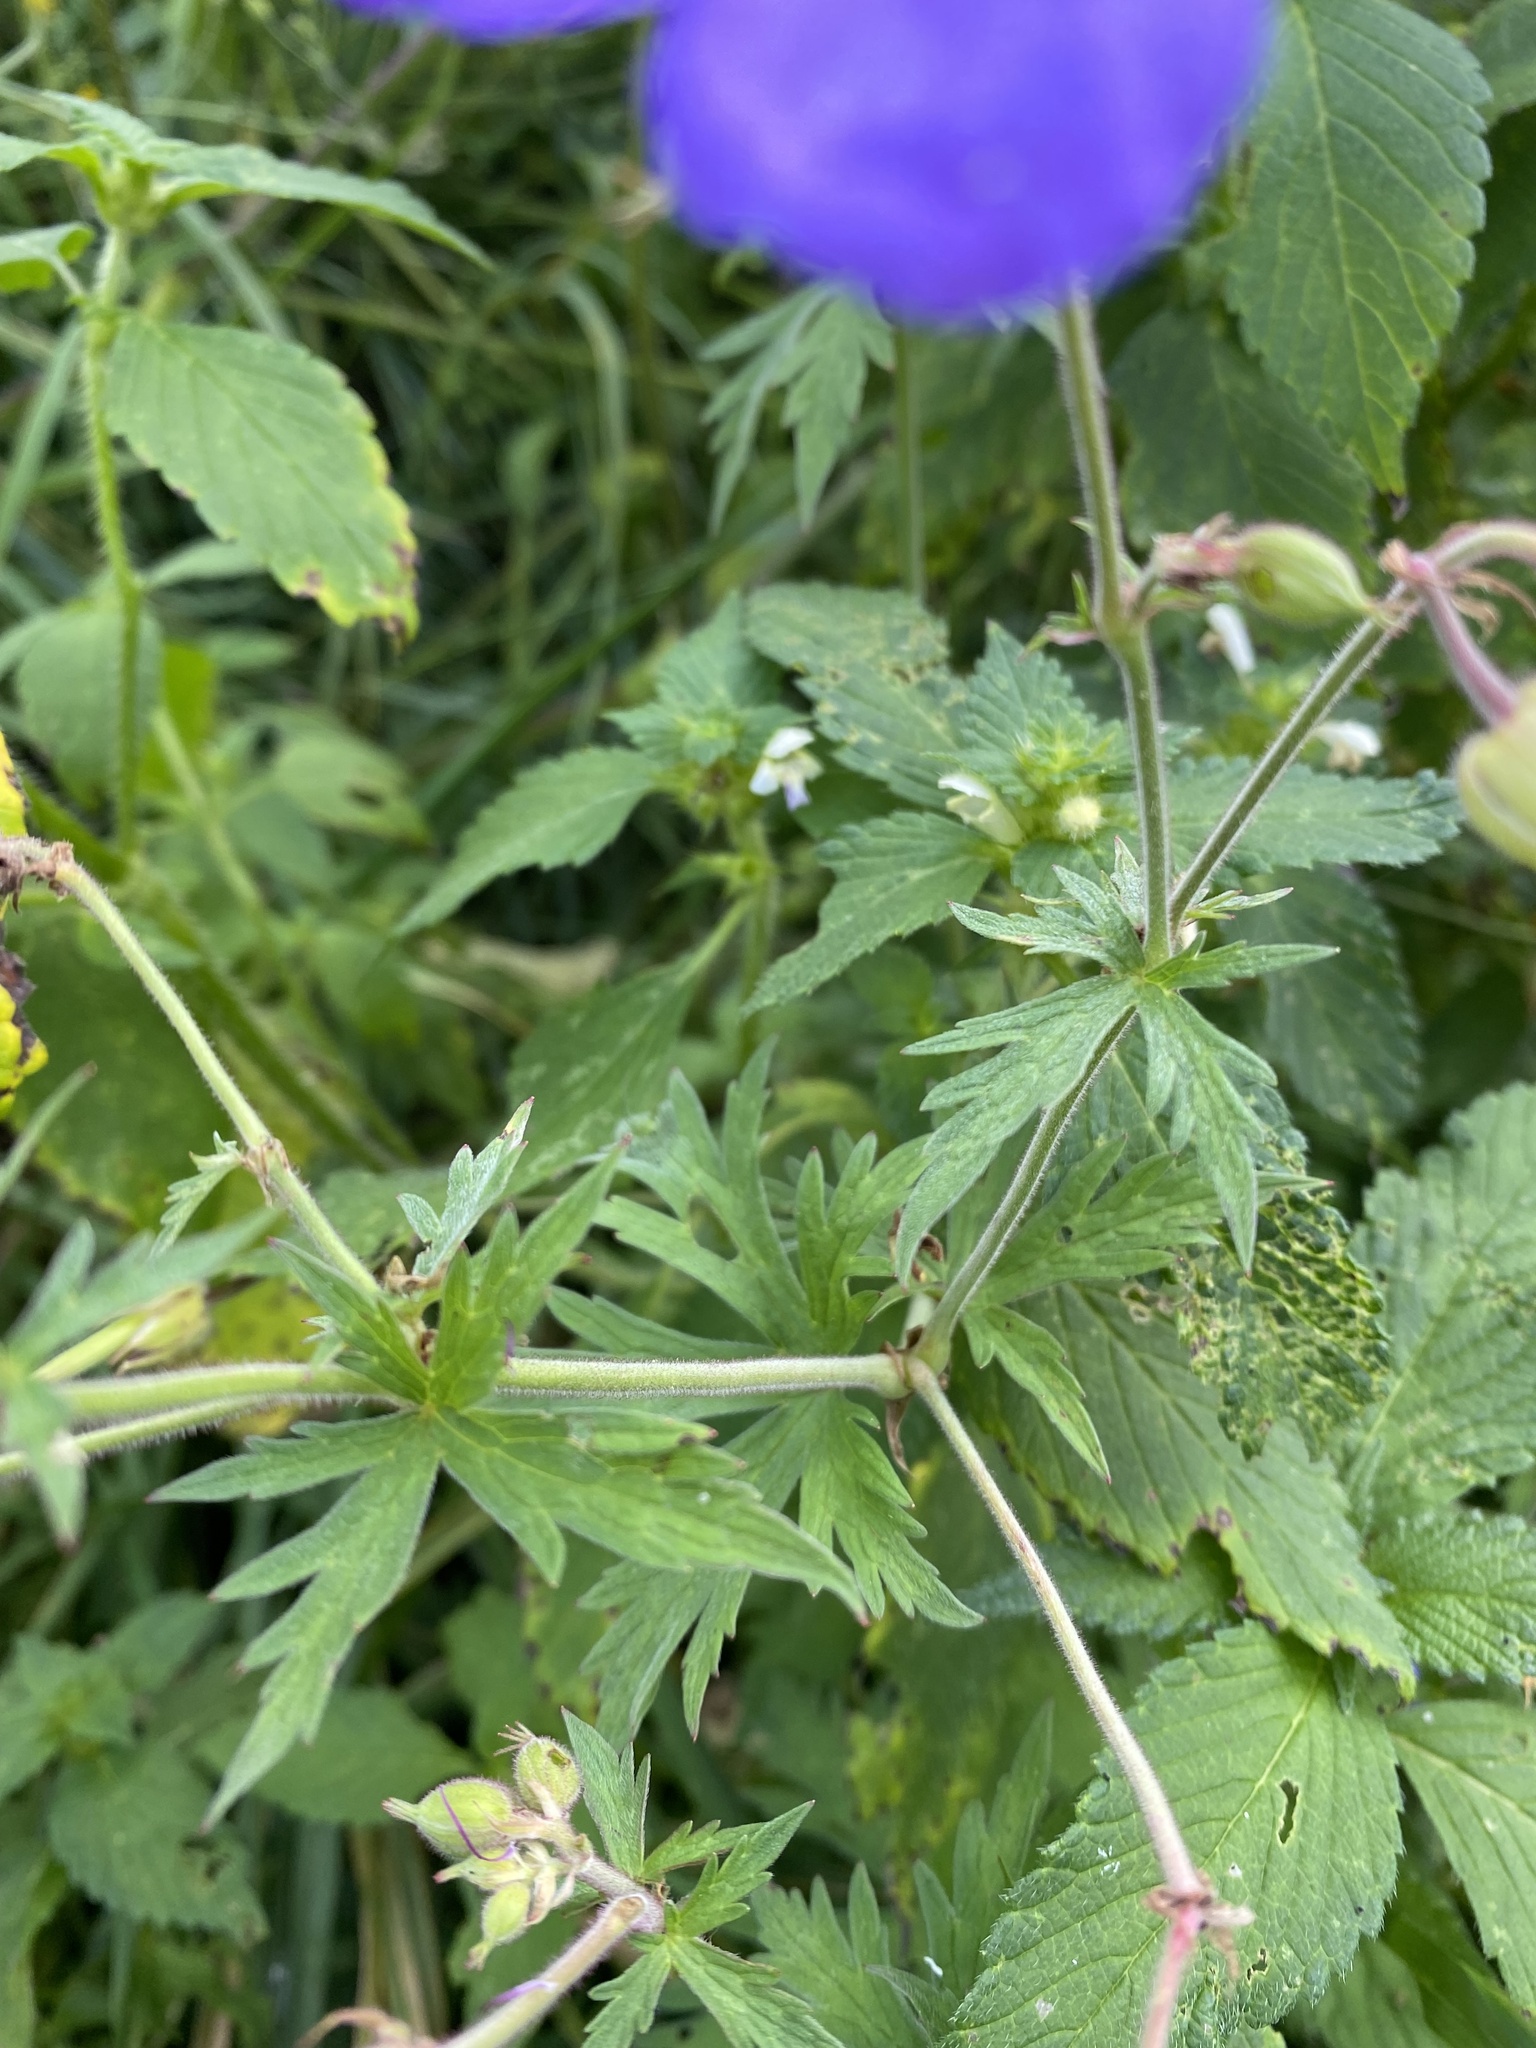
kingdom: Plantae
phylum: Tracheophyta
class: Magnoliopsida
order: Geraniales
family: Geraniaceae
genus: Geranium
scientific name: Geranium pratense
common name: Meadow crane's-bill
